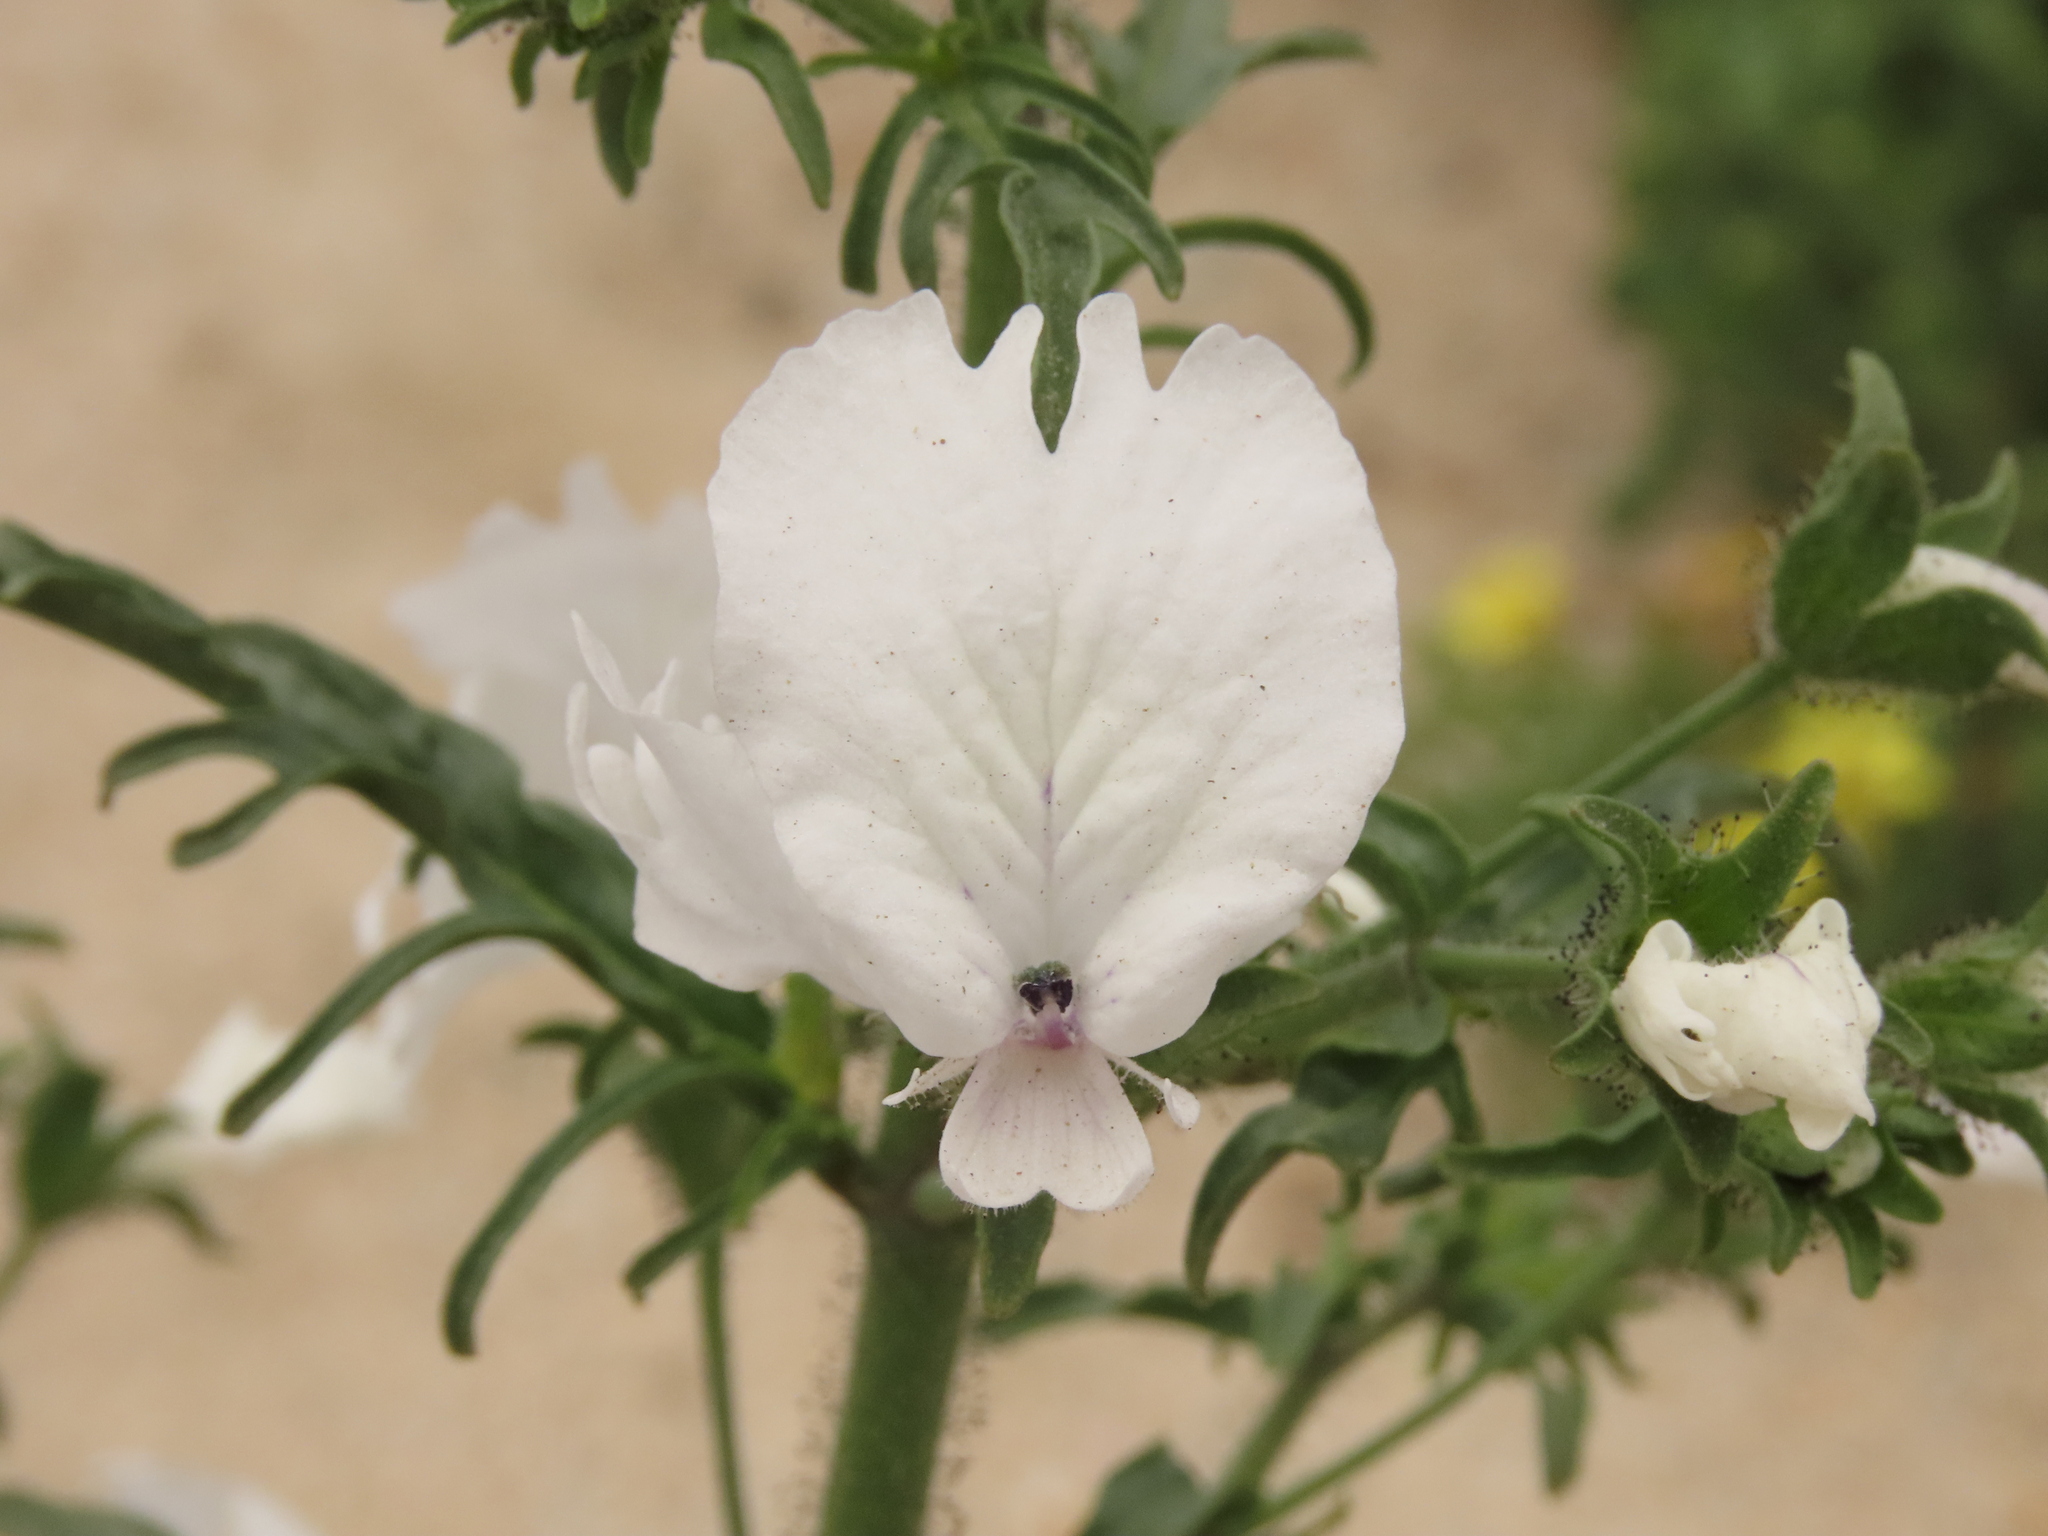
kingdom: Plantae
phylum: Tracheophyta
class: Magnoliopsida
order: Solanales
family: Solanaceae
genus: Schizanthus
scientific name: Schizanthus candidus
